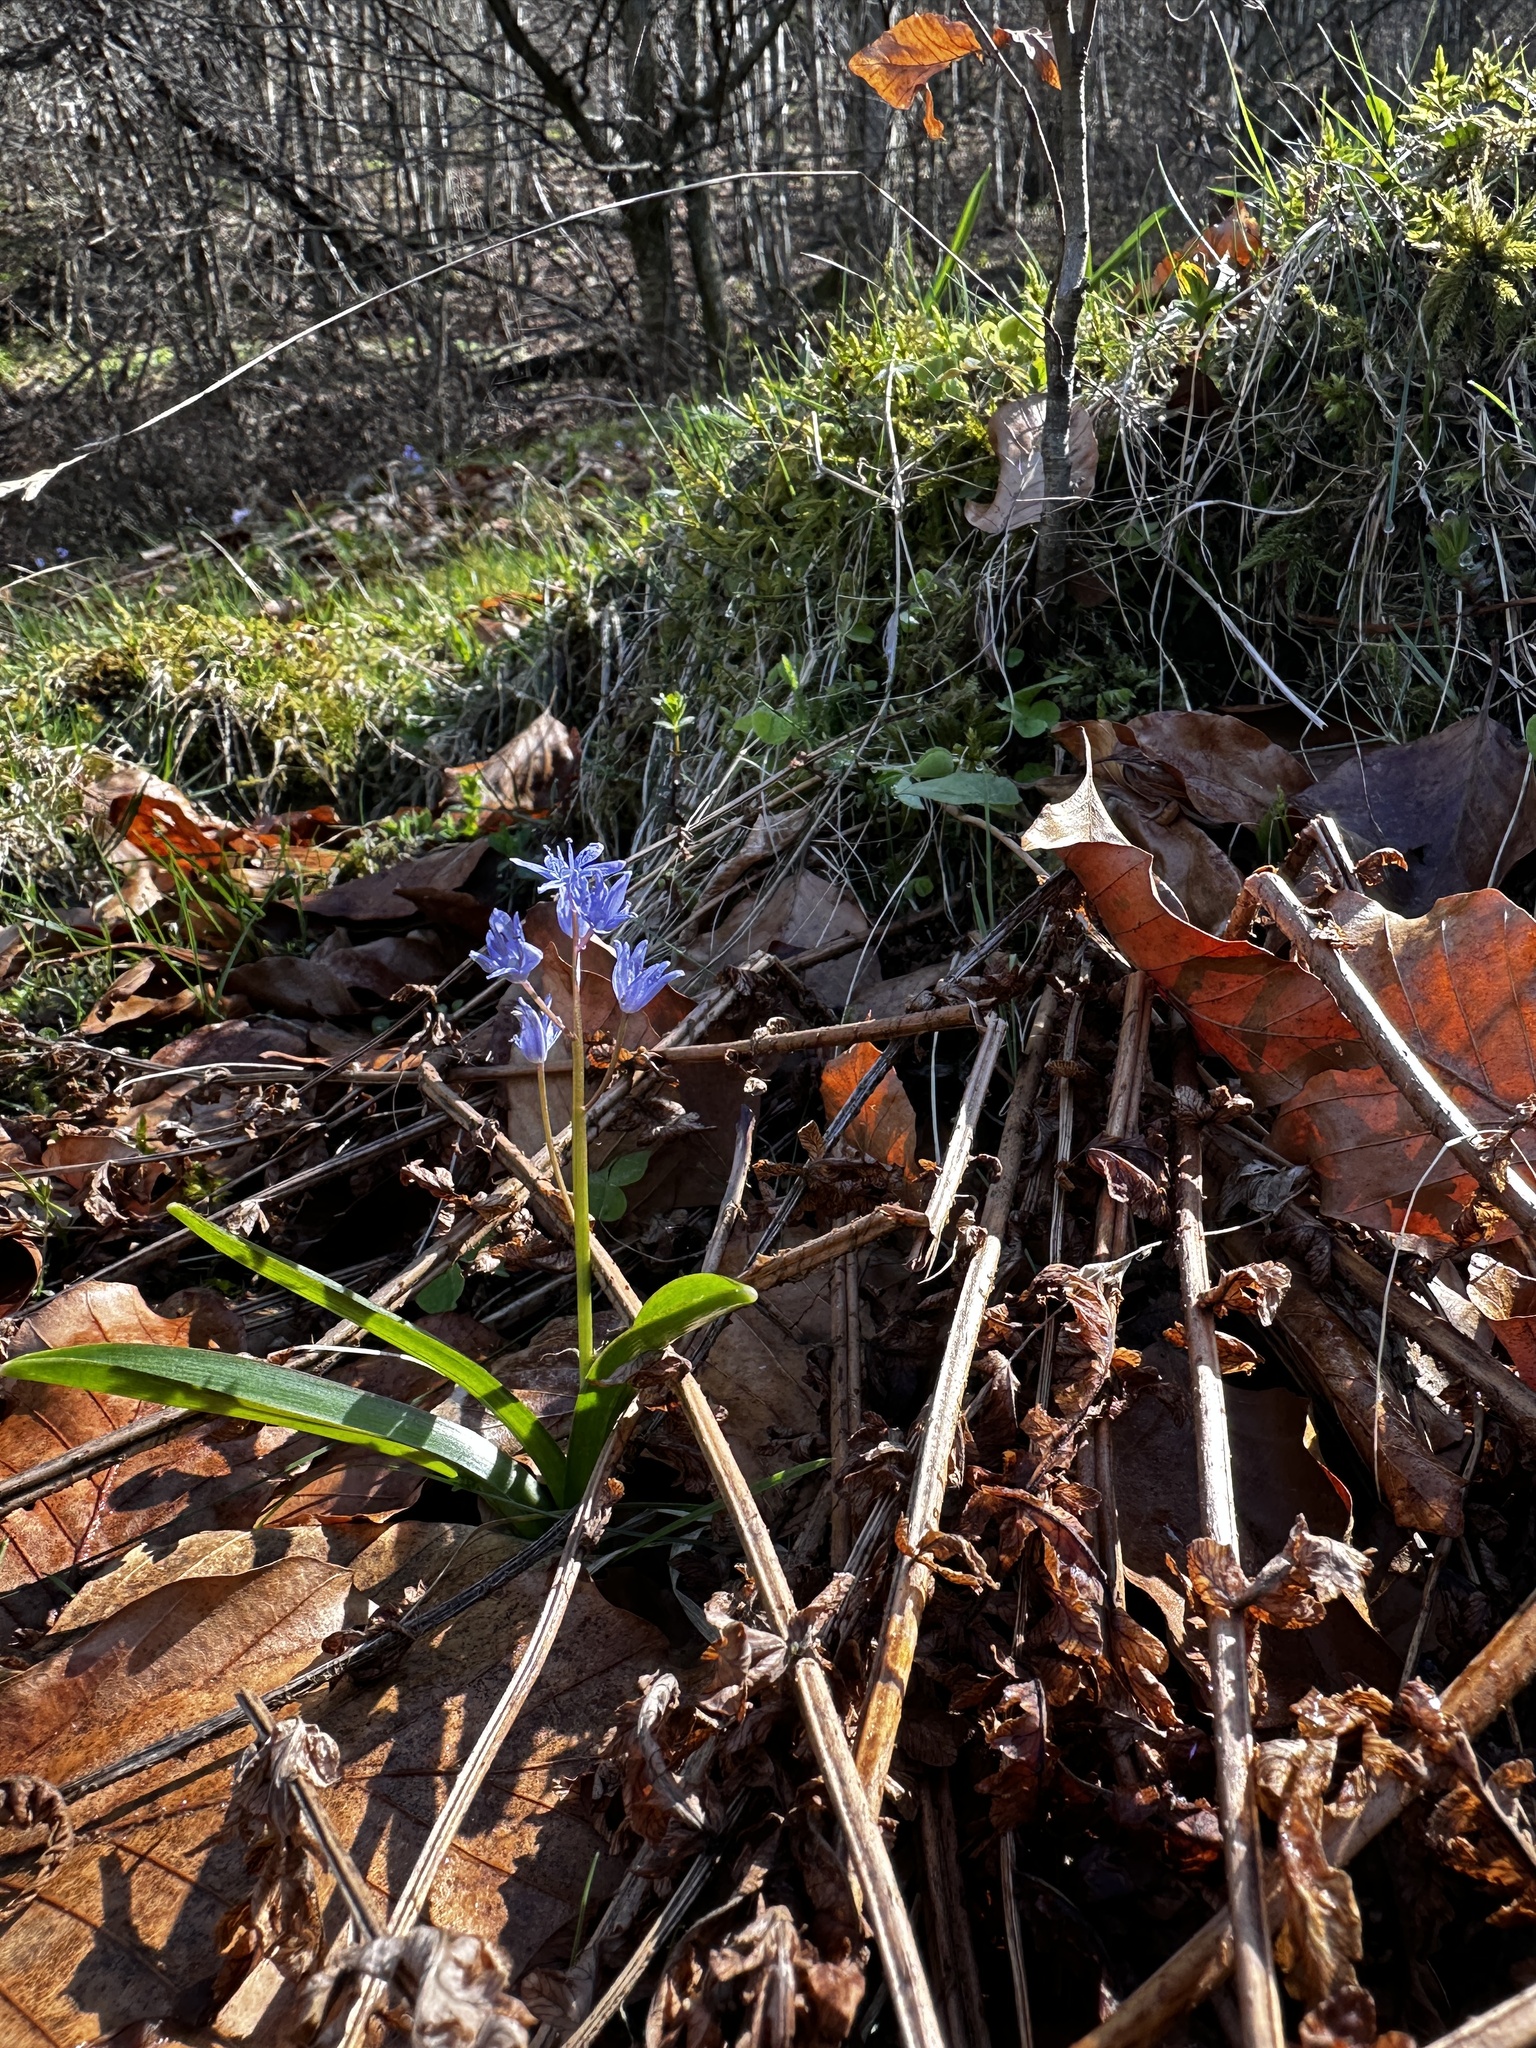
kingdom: Plantae
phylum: Tracheophyta
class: Liliopsida
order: Asparagales
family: Asparagaceae
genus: Scilla
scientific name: Scilla bifolia
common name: Alpine squill
